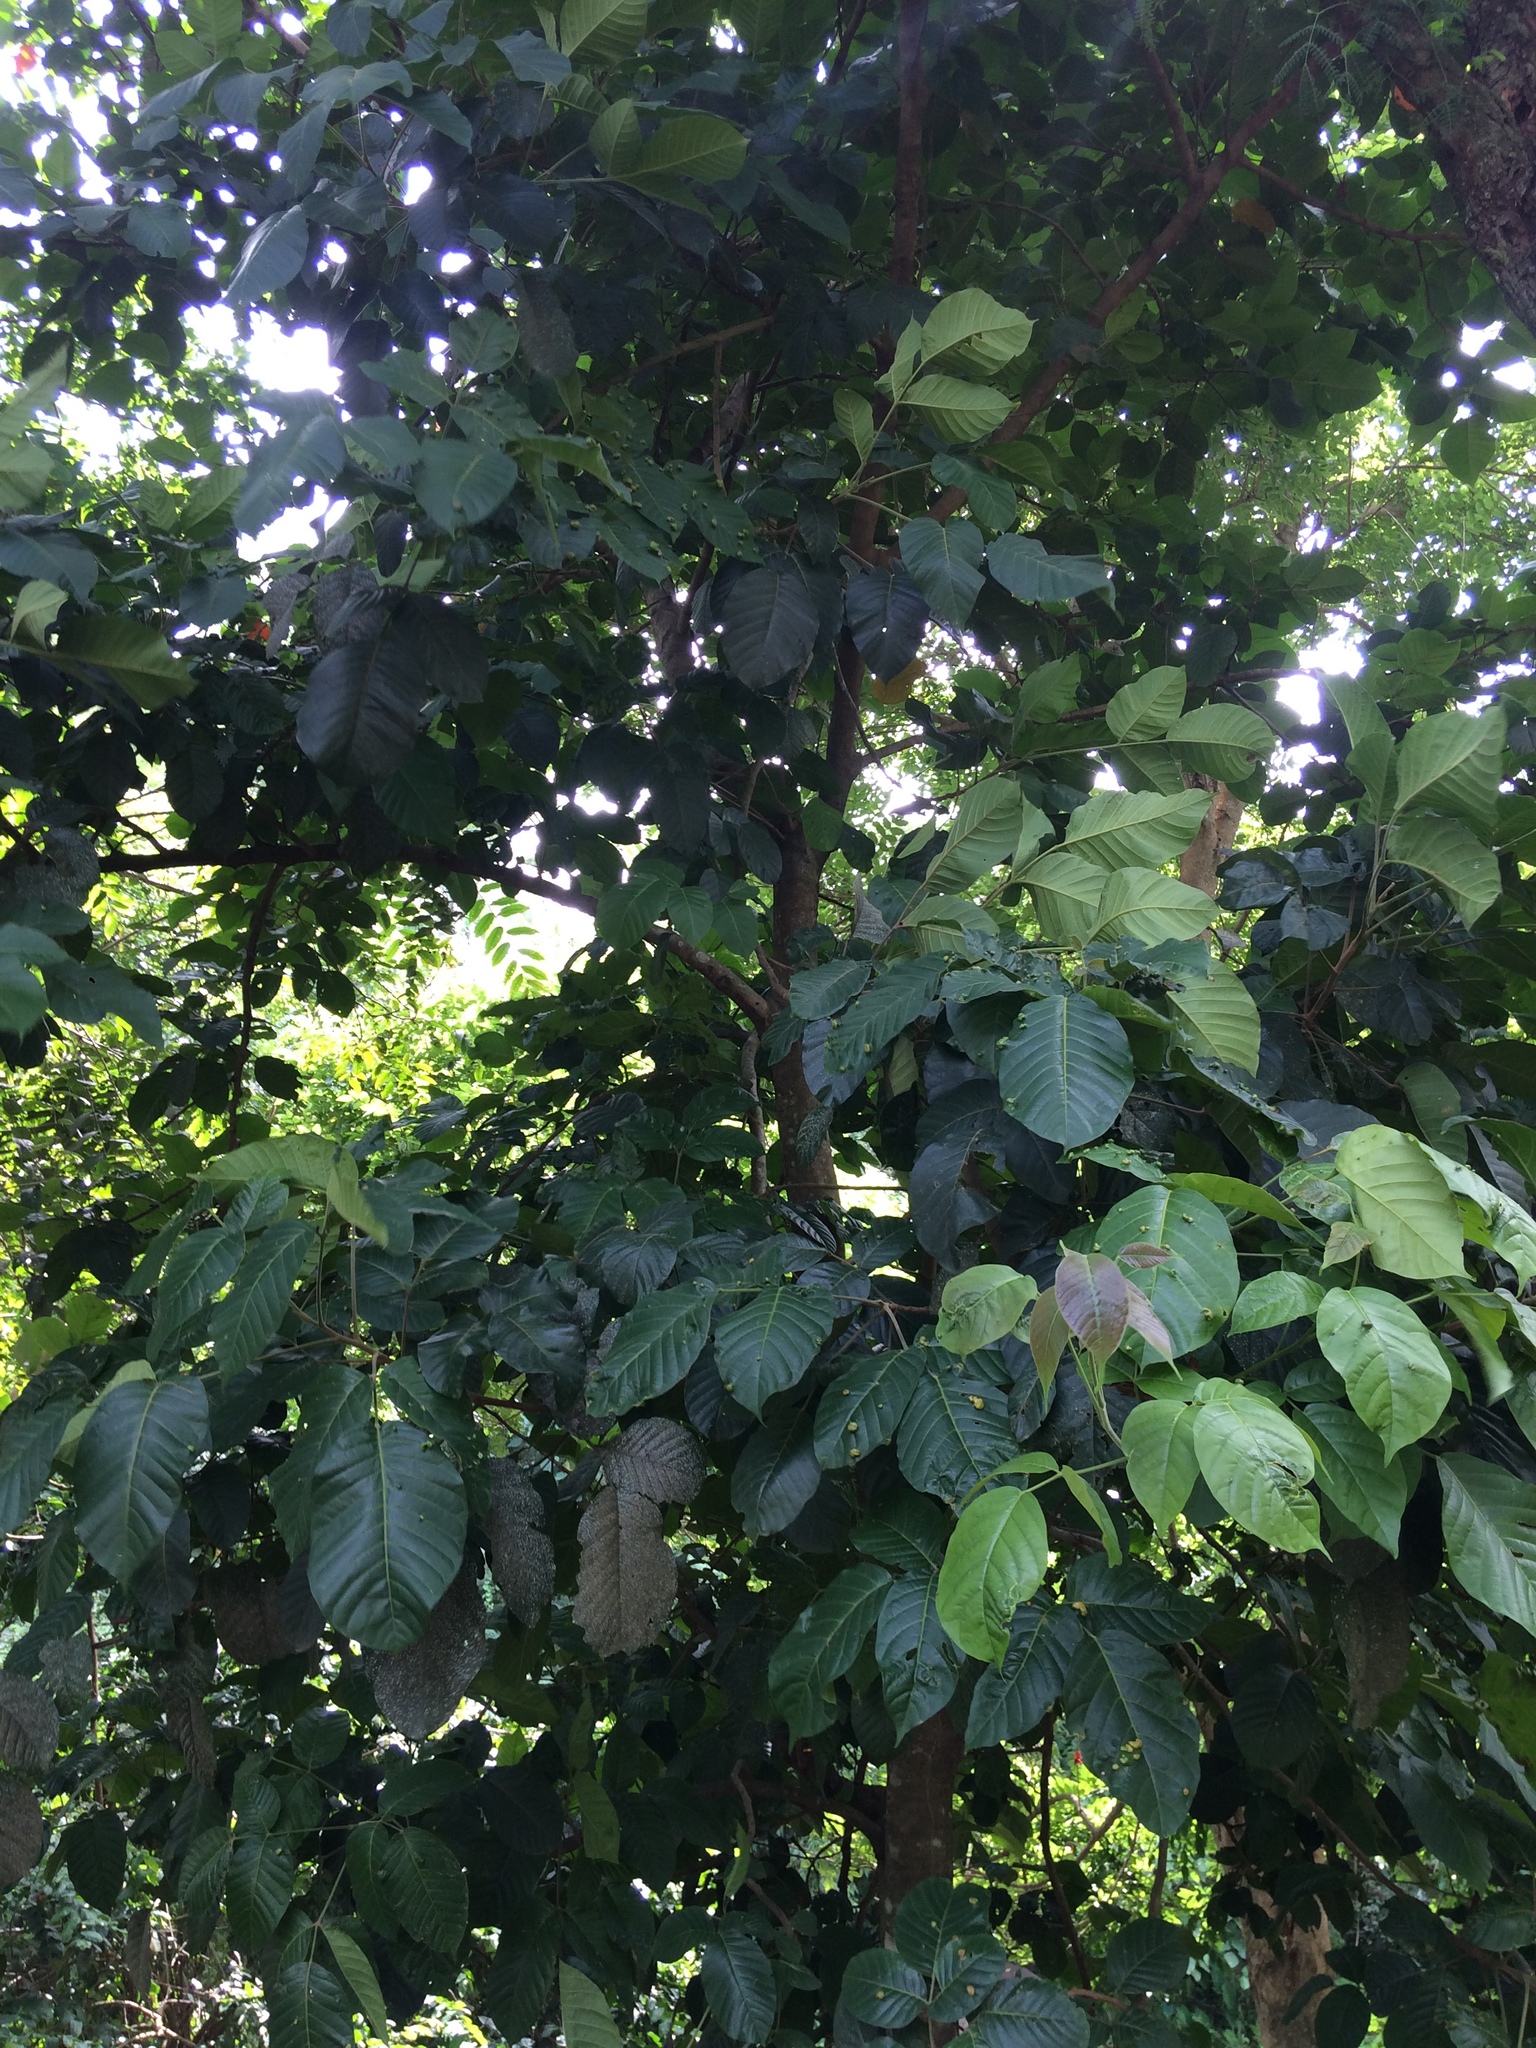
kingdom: Plantae
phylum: Tracheophyta
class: Magnoliopsida
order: Sapindales
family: Meliaceae
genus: Sandoricum
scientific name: Sandoricum koetjape
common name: Santol
